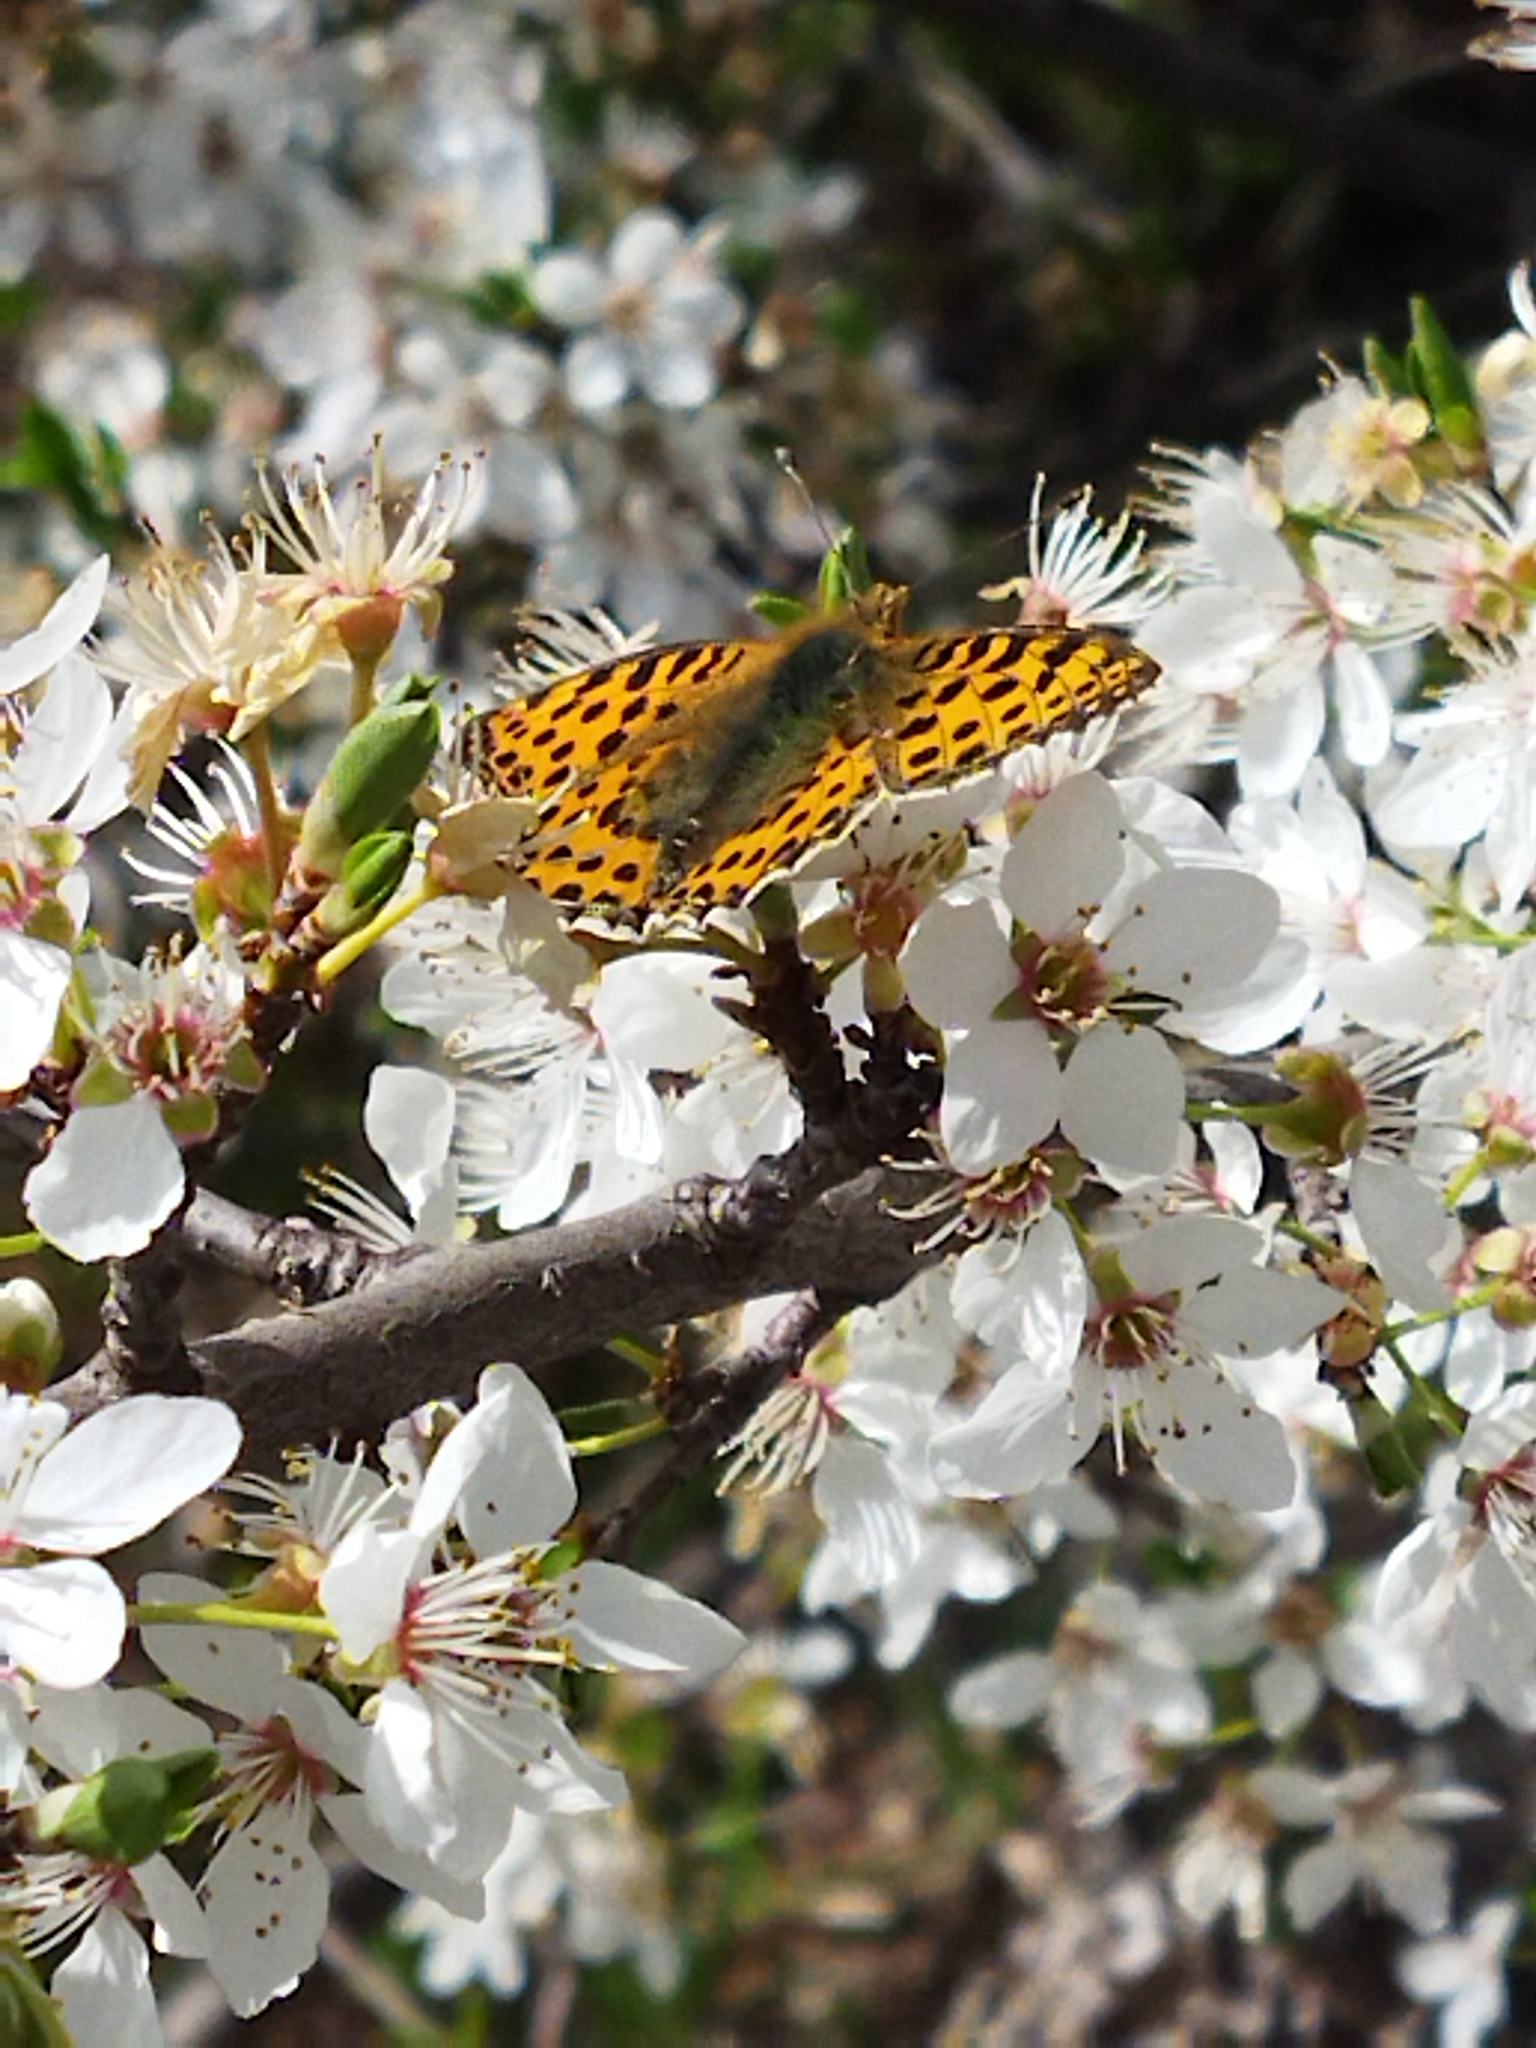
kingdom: Animalia
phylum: Arthropoda
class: Insecta
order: Lepidoptera
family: Nymphalidae
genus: Issoria
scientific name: Issoria lathonia
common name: Queen of spain fritillary
